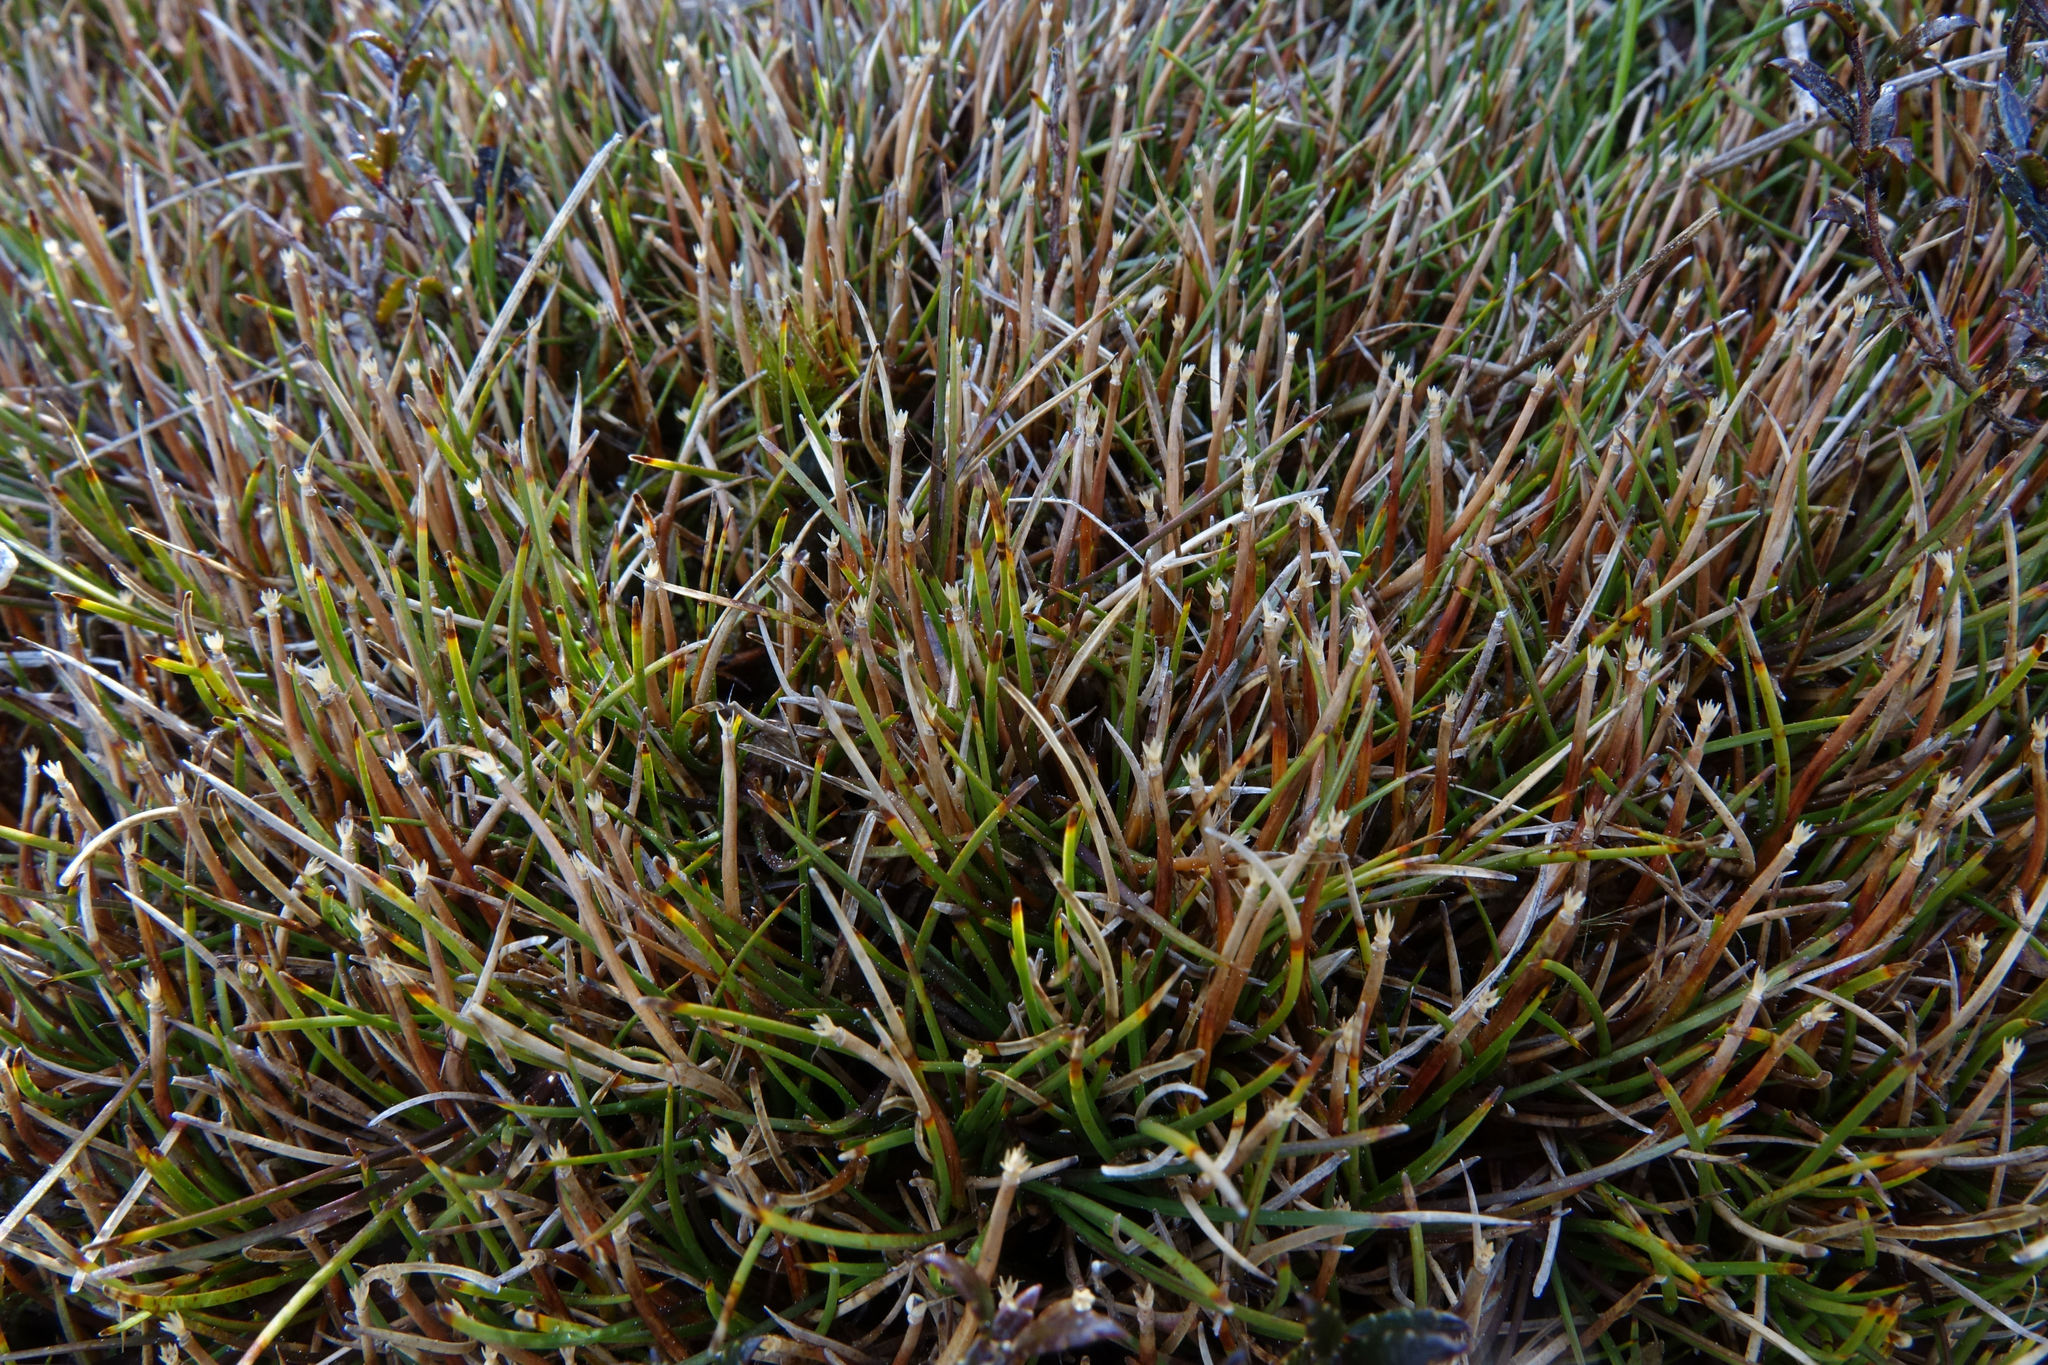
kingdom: Plantae
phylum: Tracheophyta
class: Liliopsida
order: Poales
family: Cyperaceae
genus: Oreobolus
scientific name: Oreobolus strictus
